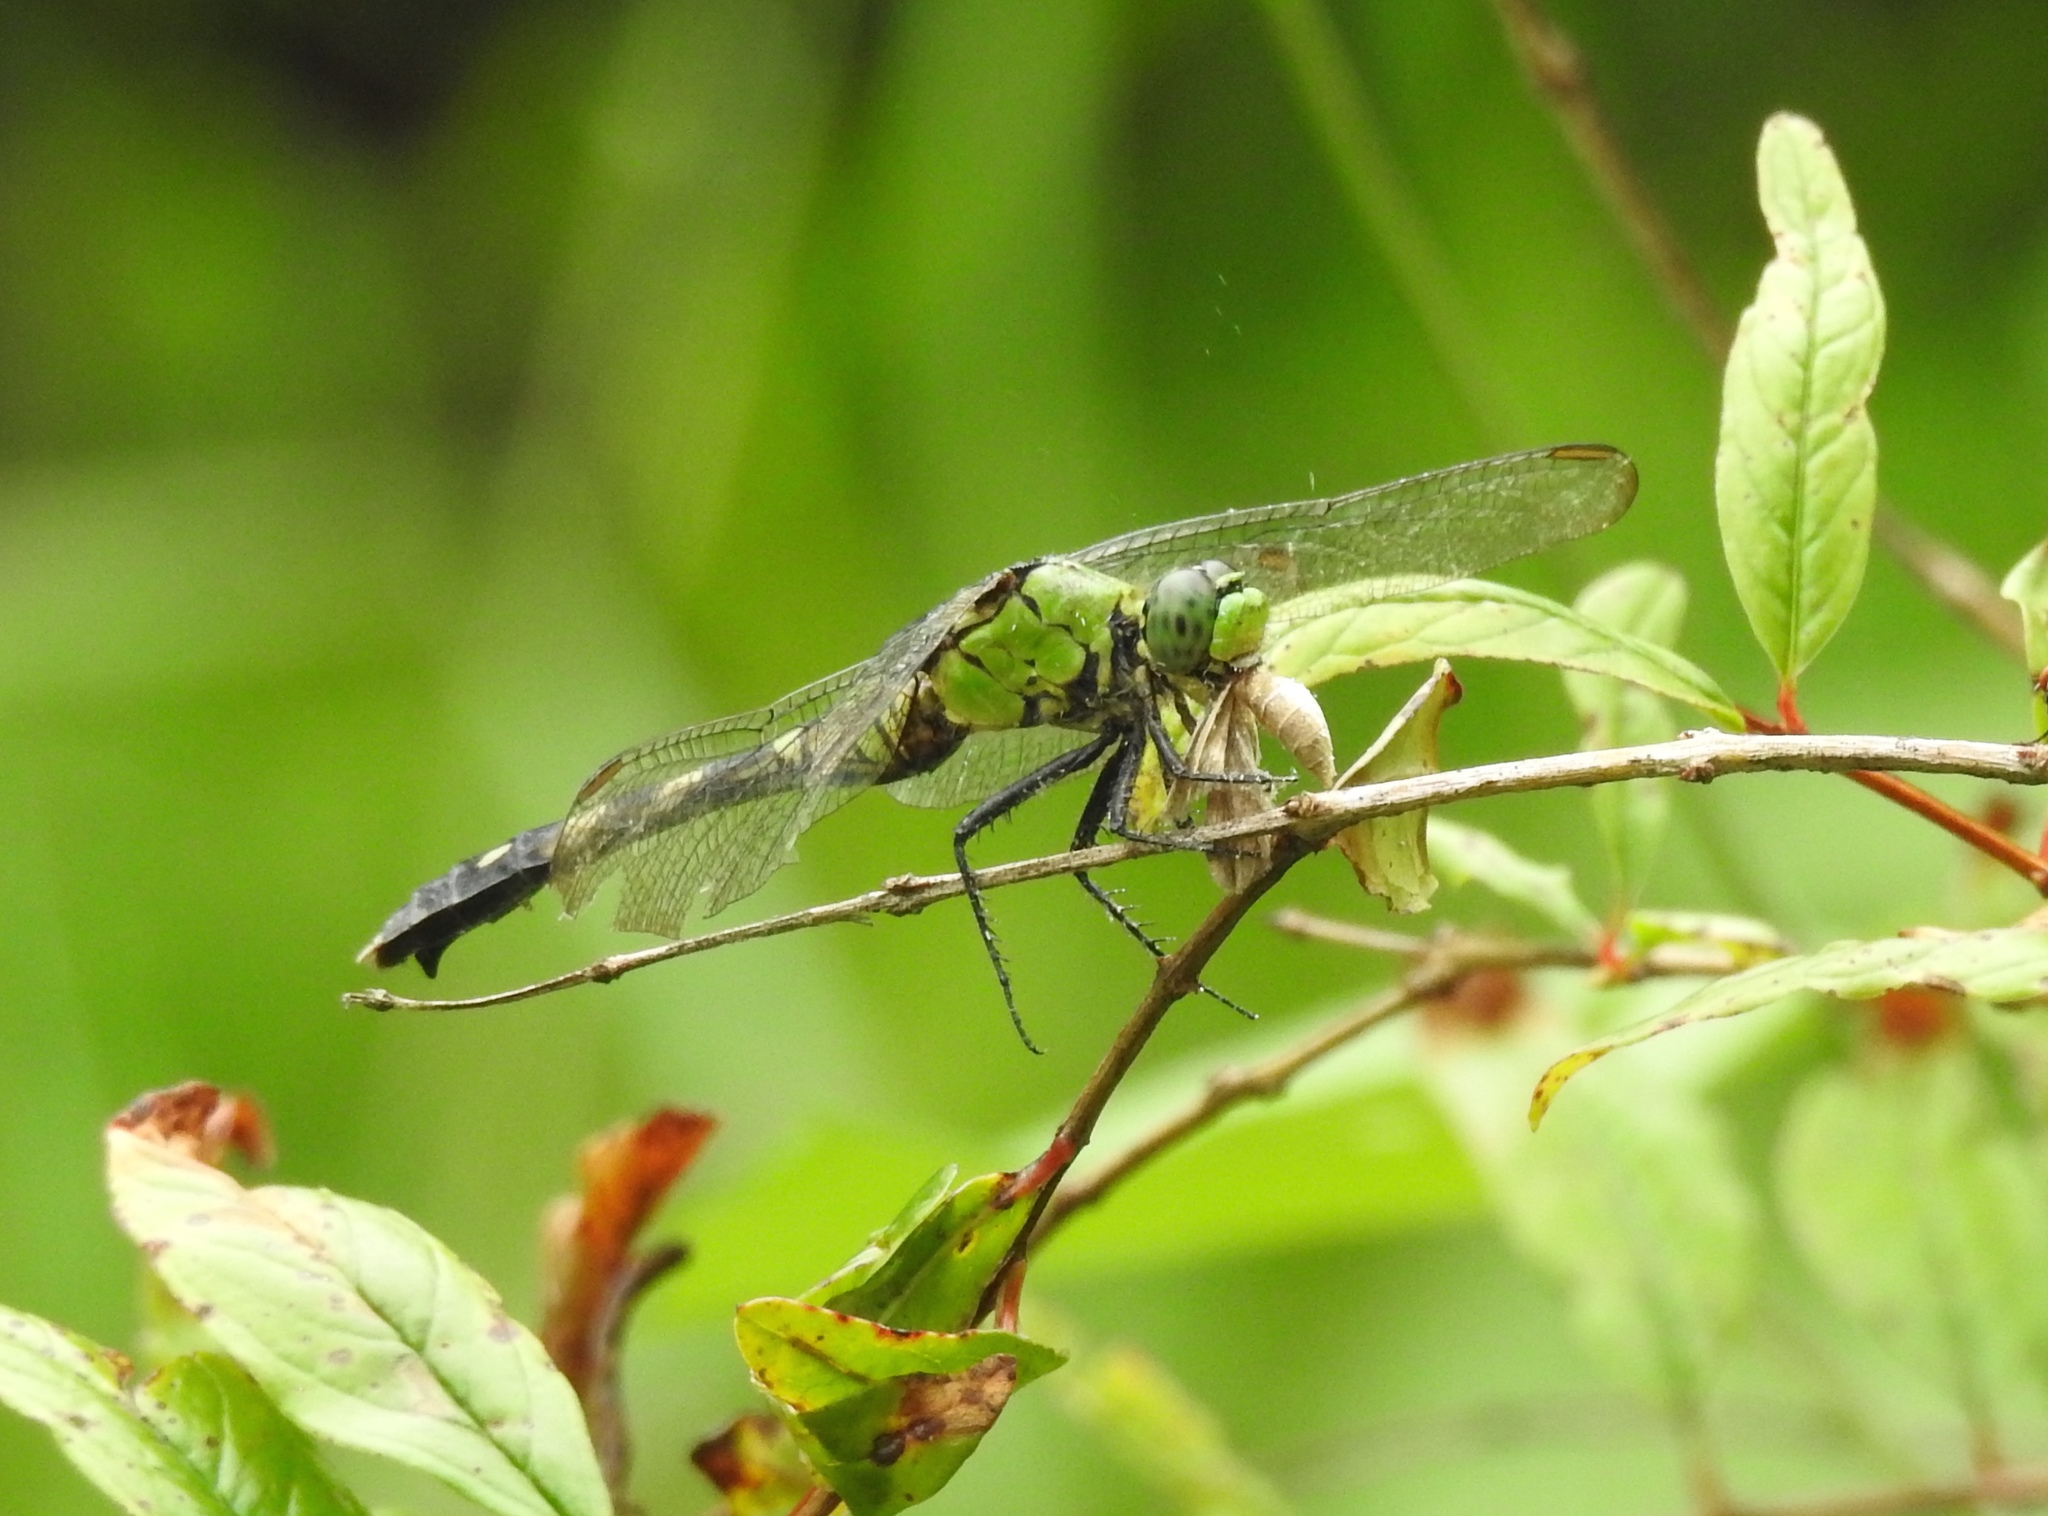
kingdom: Animalia
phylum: Arthropoda
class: Insecta
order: Odonata
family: Libellulidae
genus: Erythemis
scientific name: Erythemis simplicicollis
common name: Eastern pondhawk
